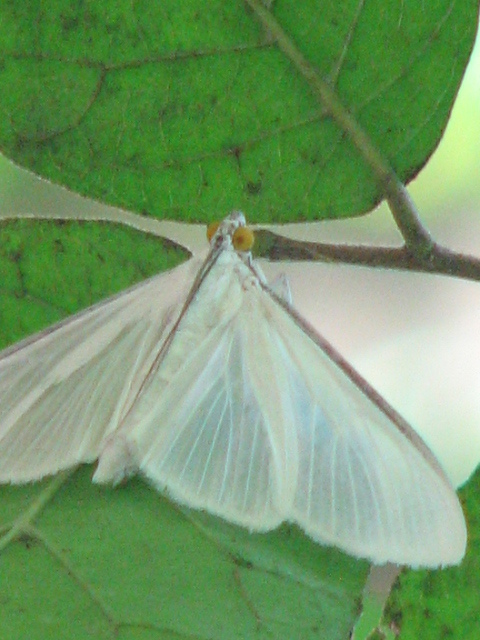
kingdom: Animalia
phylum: Arthropoda
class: Insecta
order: Lepidoptera
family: Crambidae
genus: Palpita
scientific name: Palpita flegia
